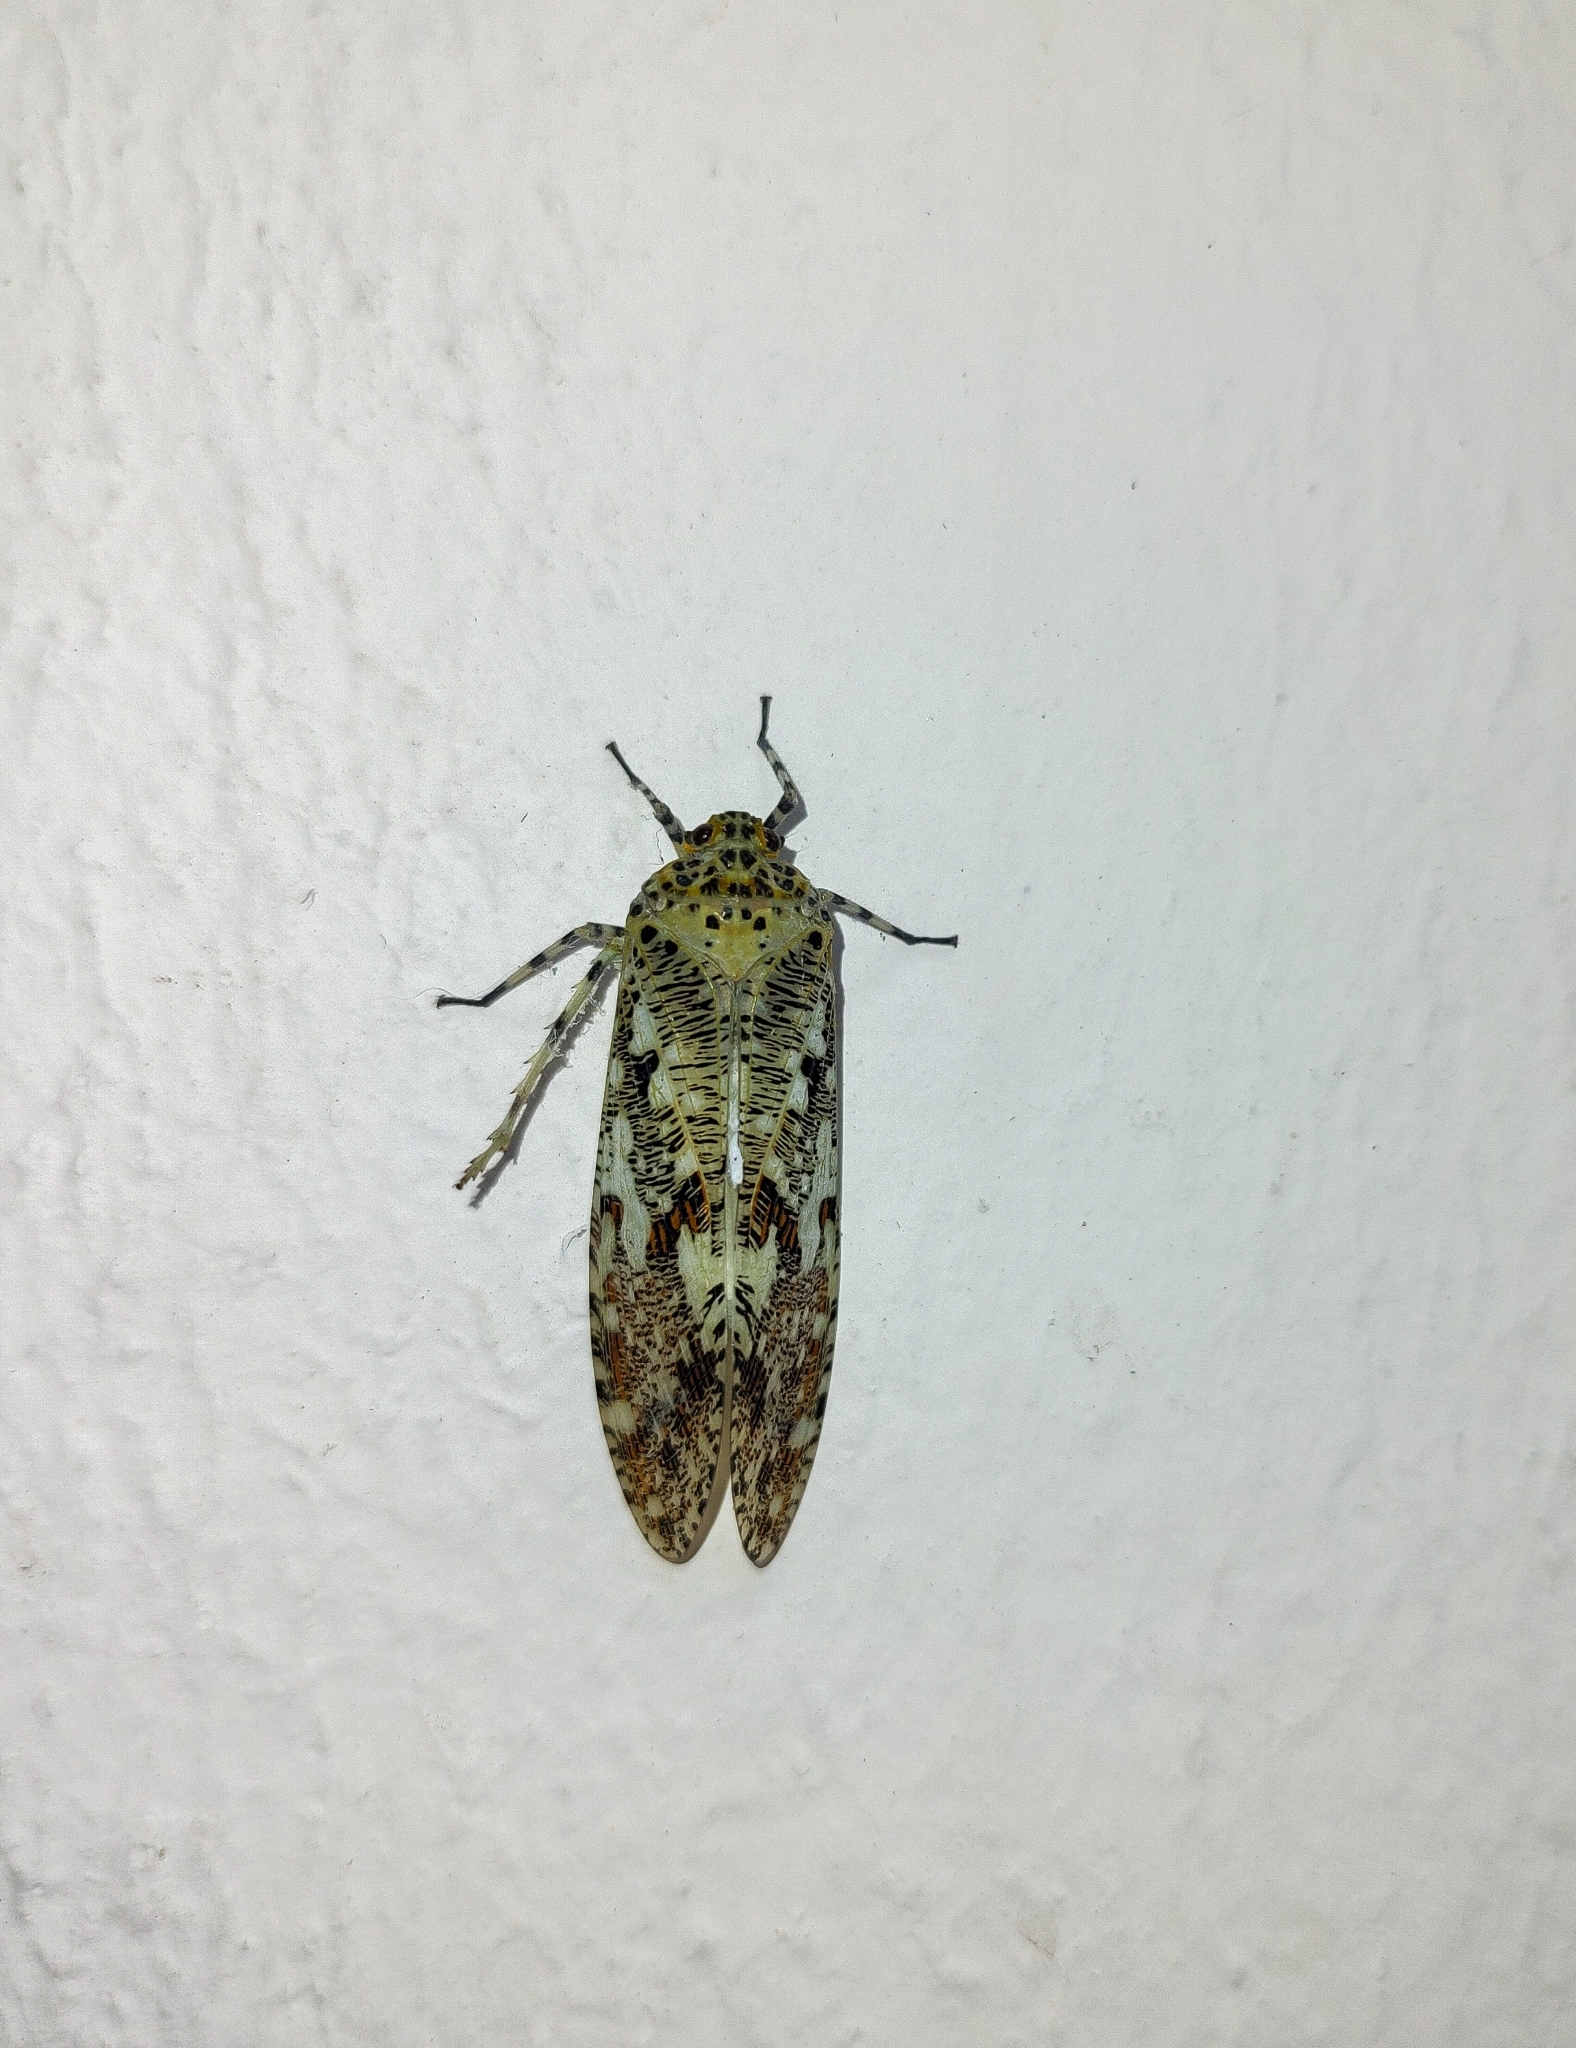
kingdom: Animalia
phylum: Arthropoda
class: Insecta
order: Hemiptera
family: Fulgoridae
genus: Phenax
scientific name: Phenax variegata
